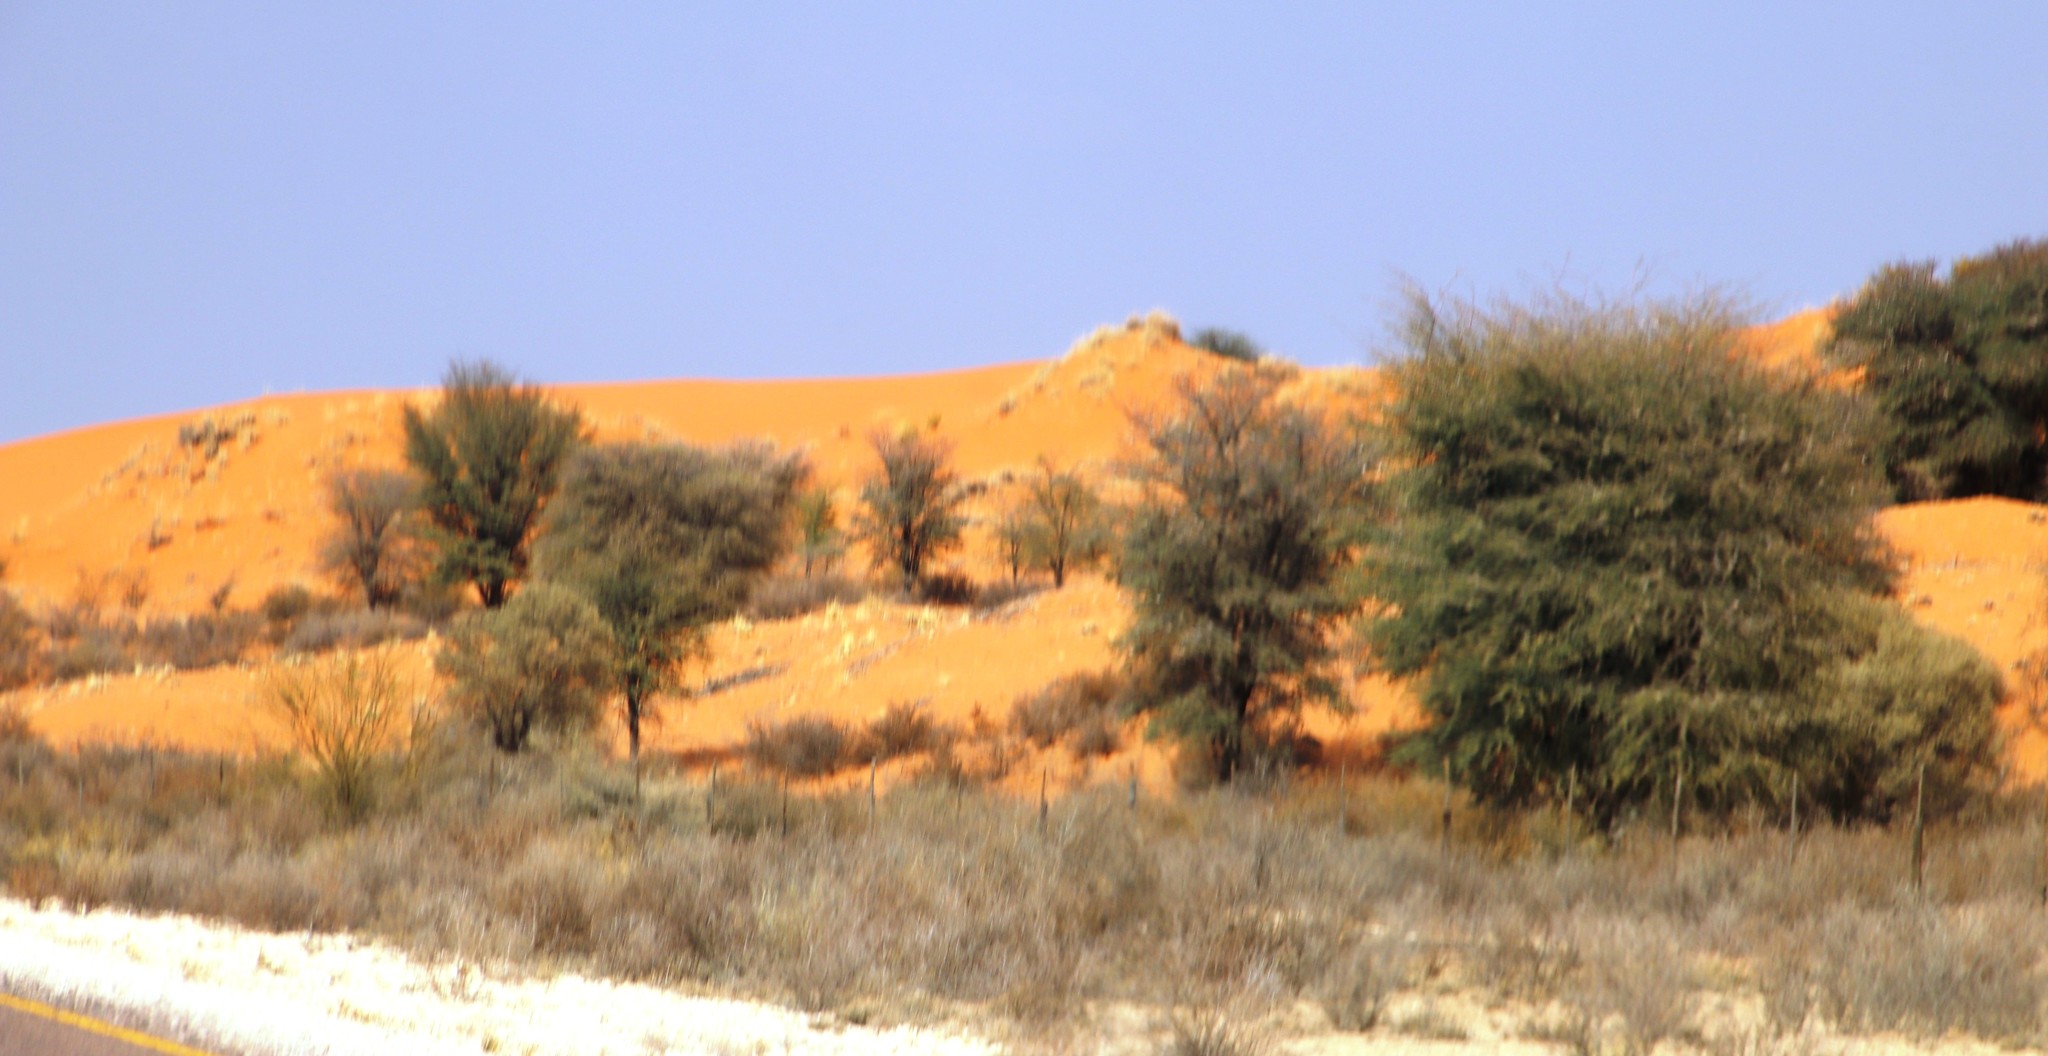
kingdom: Plantae
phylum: Tracheophyta
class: Magnoliopsida
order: Fabales
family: Fabaceae
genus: Vachellia
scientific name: Vachellia erioloba
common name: Camel thorn
